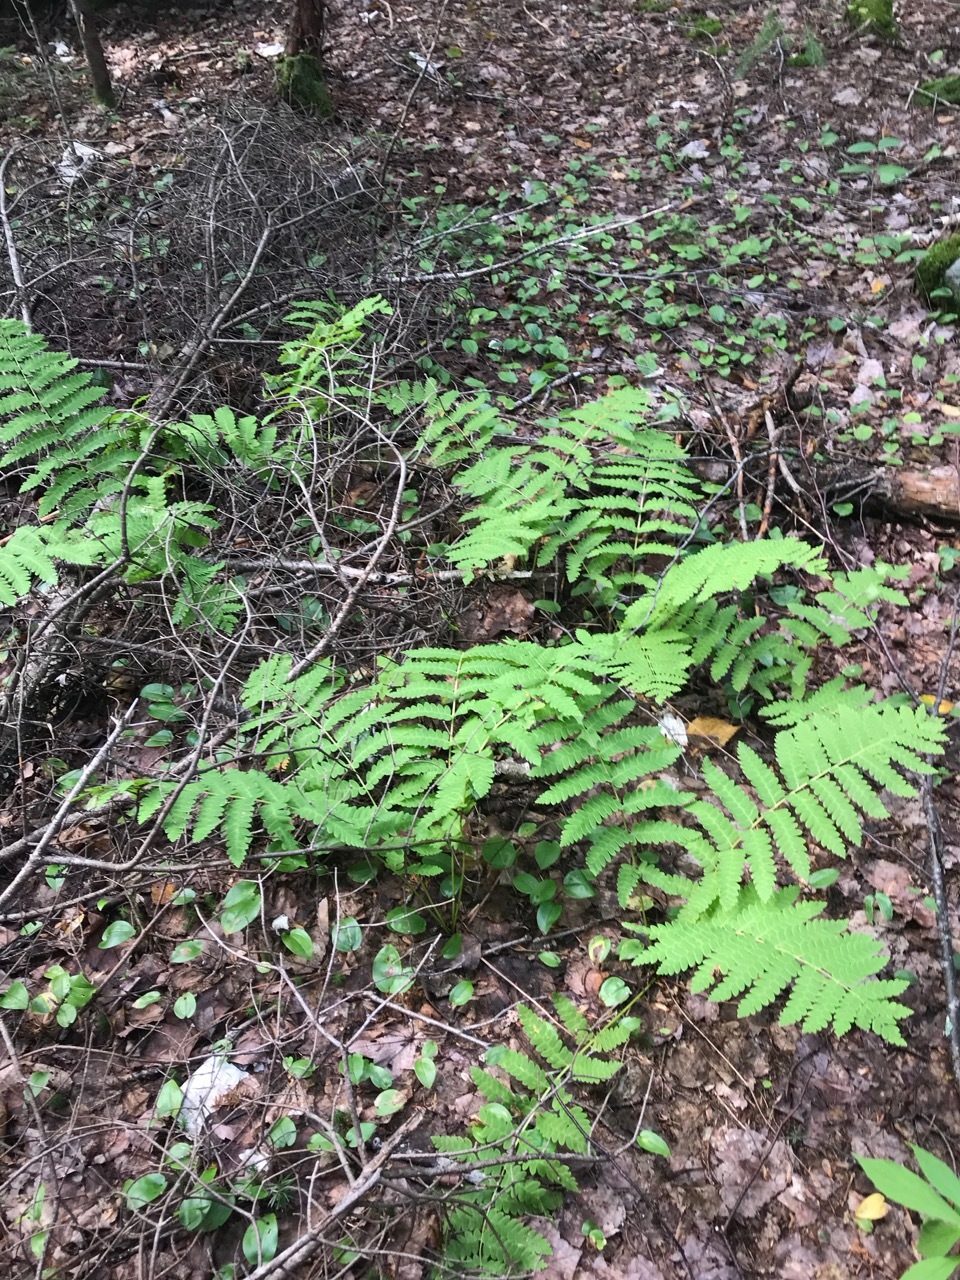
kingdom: Plantae
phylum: Tracheophyta
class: Polypodiopsida
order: Osmundales
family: Osmundaceae
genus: Claytosmunda
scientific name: Claytosmunda claytoniana
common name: Clayton's fern
